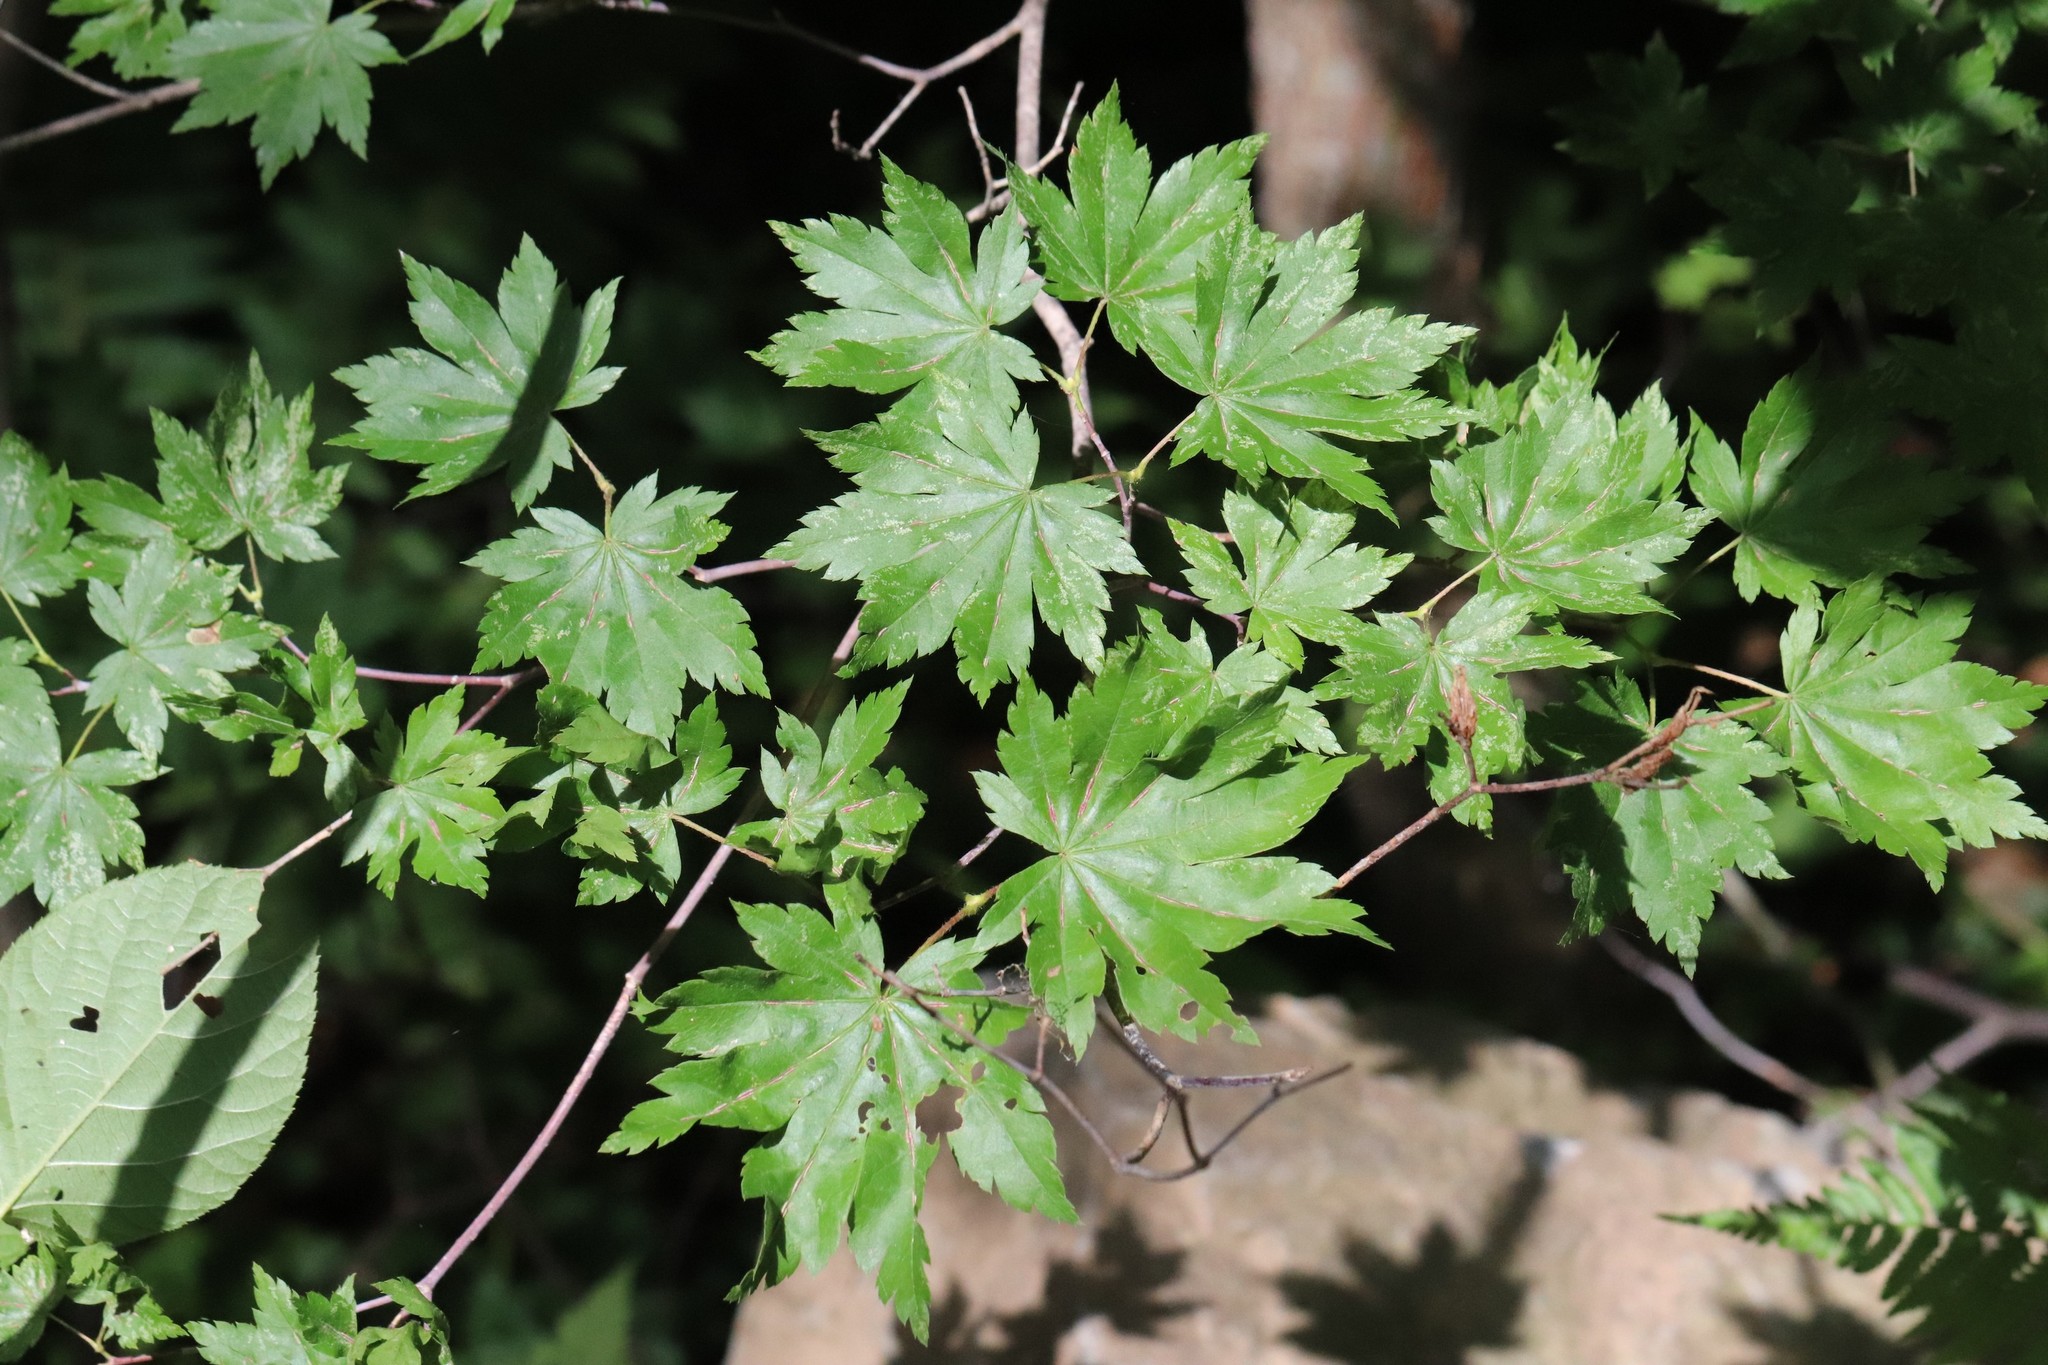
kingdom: Plantae
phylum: Tracheophyta
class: Magnoliopsida
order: Sapindales
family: Sapindaceae
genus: Acer
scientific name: Acer pictum
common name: The painted maple
